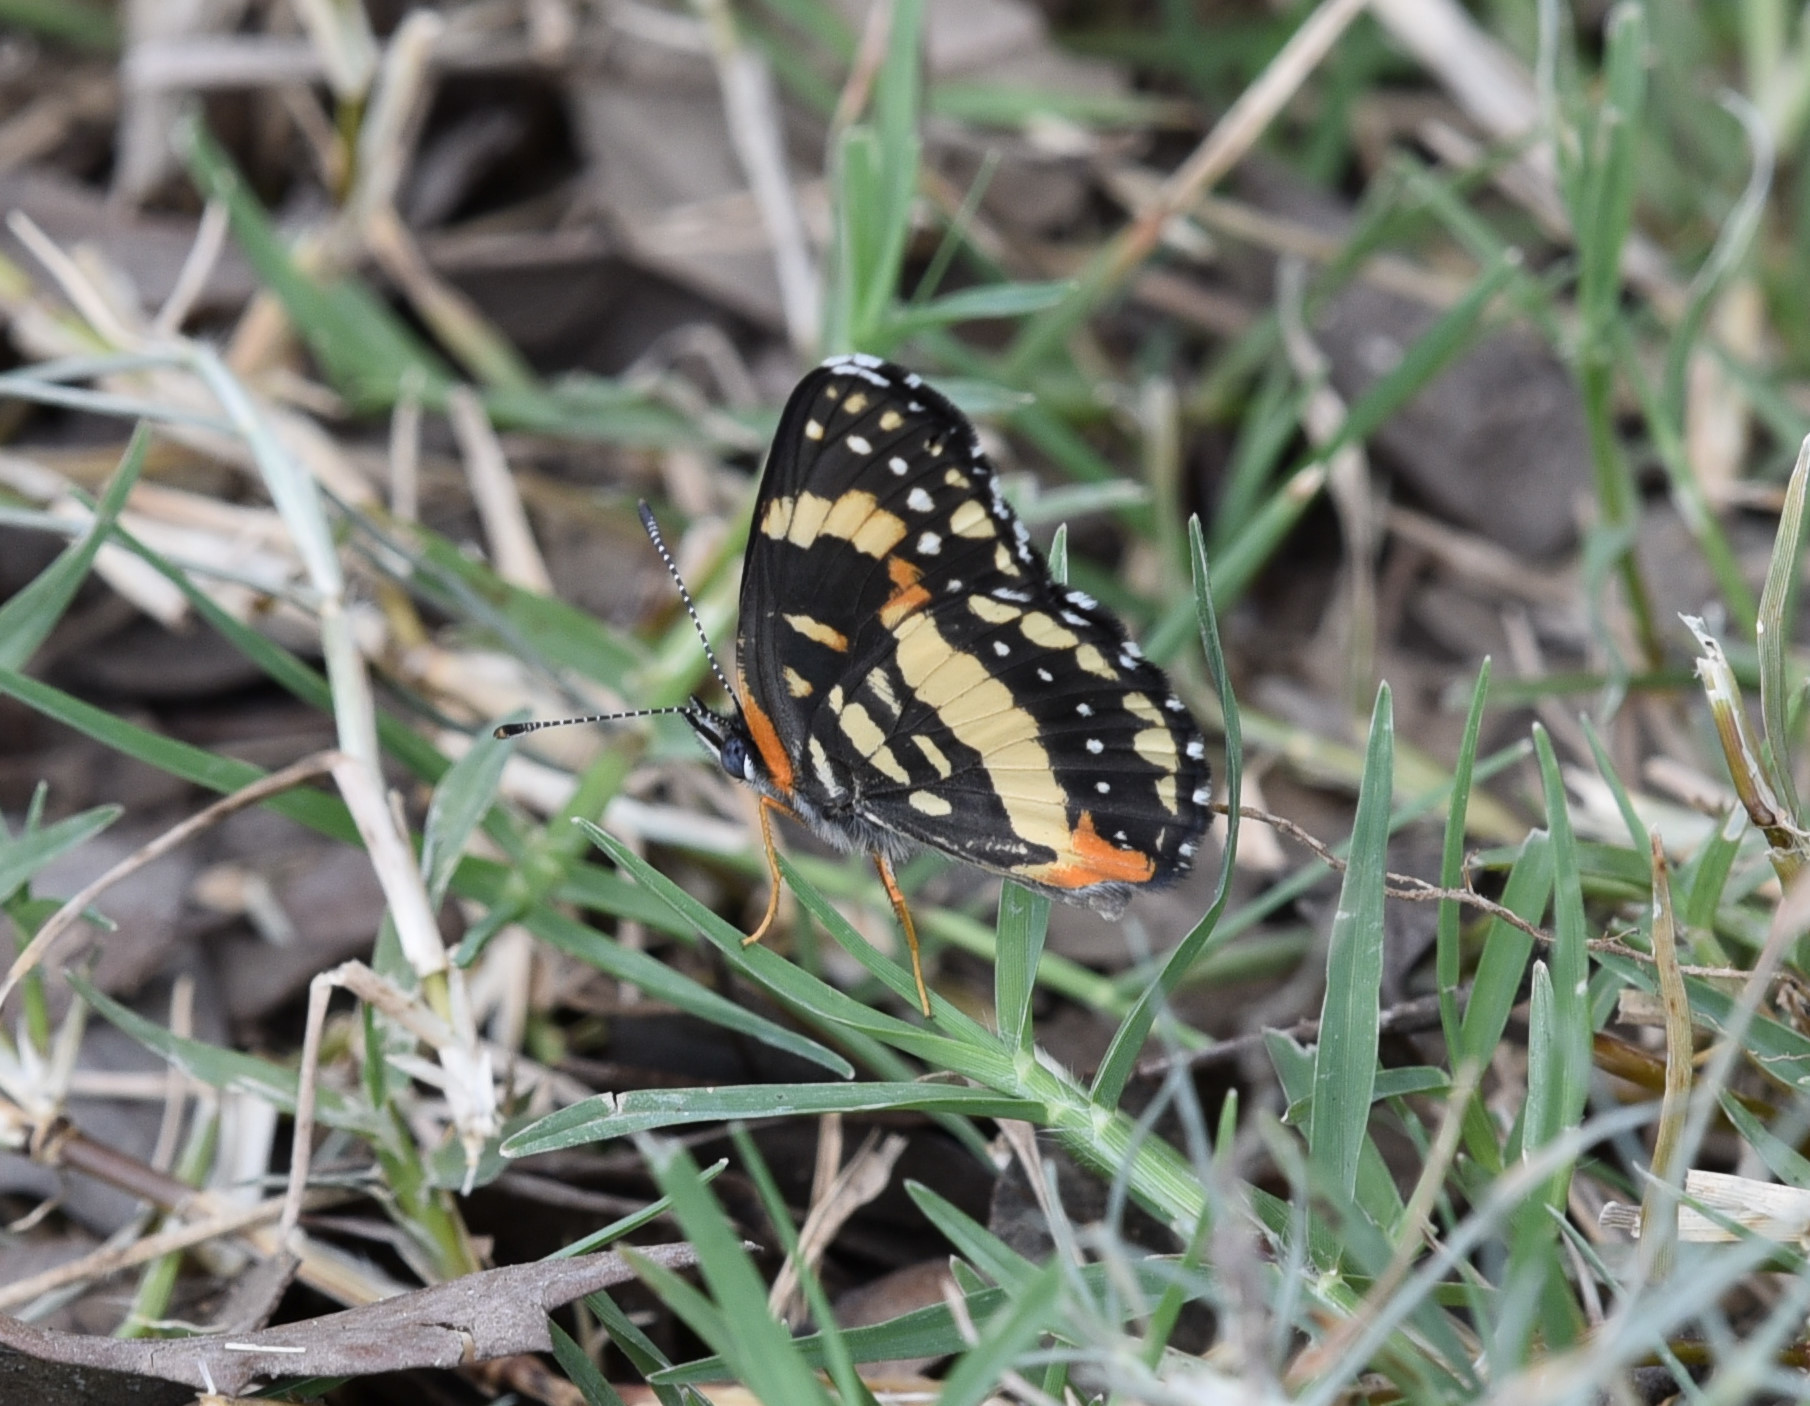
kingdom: Animalia
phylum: Arthropoda
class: Insecta
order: Lepidoptera
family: Nymphalidae
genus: Chlosyne
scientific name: Chlosyne lacinia
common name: Bordered patch
